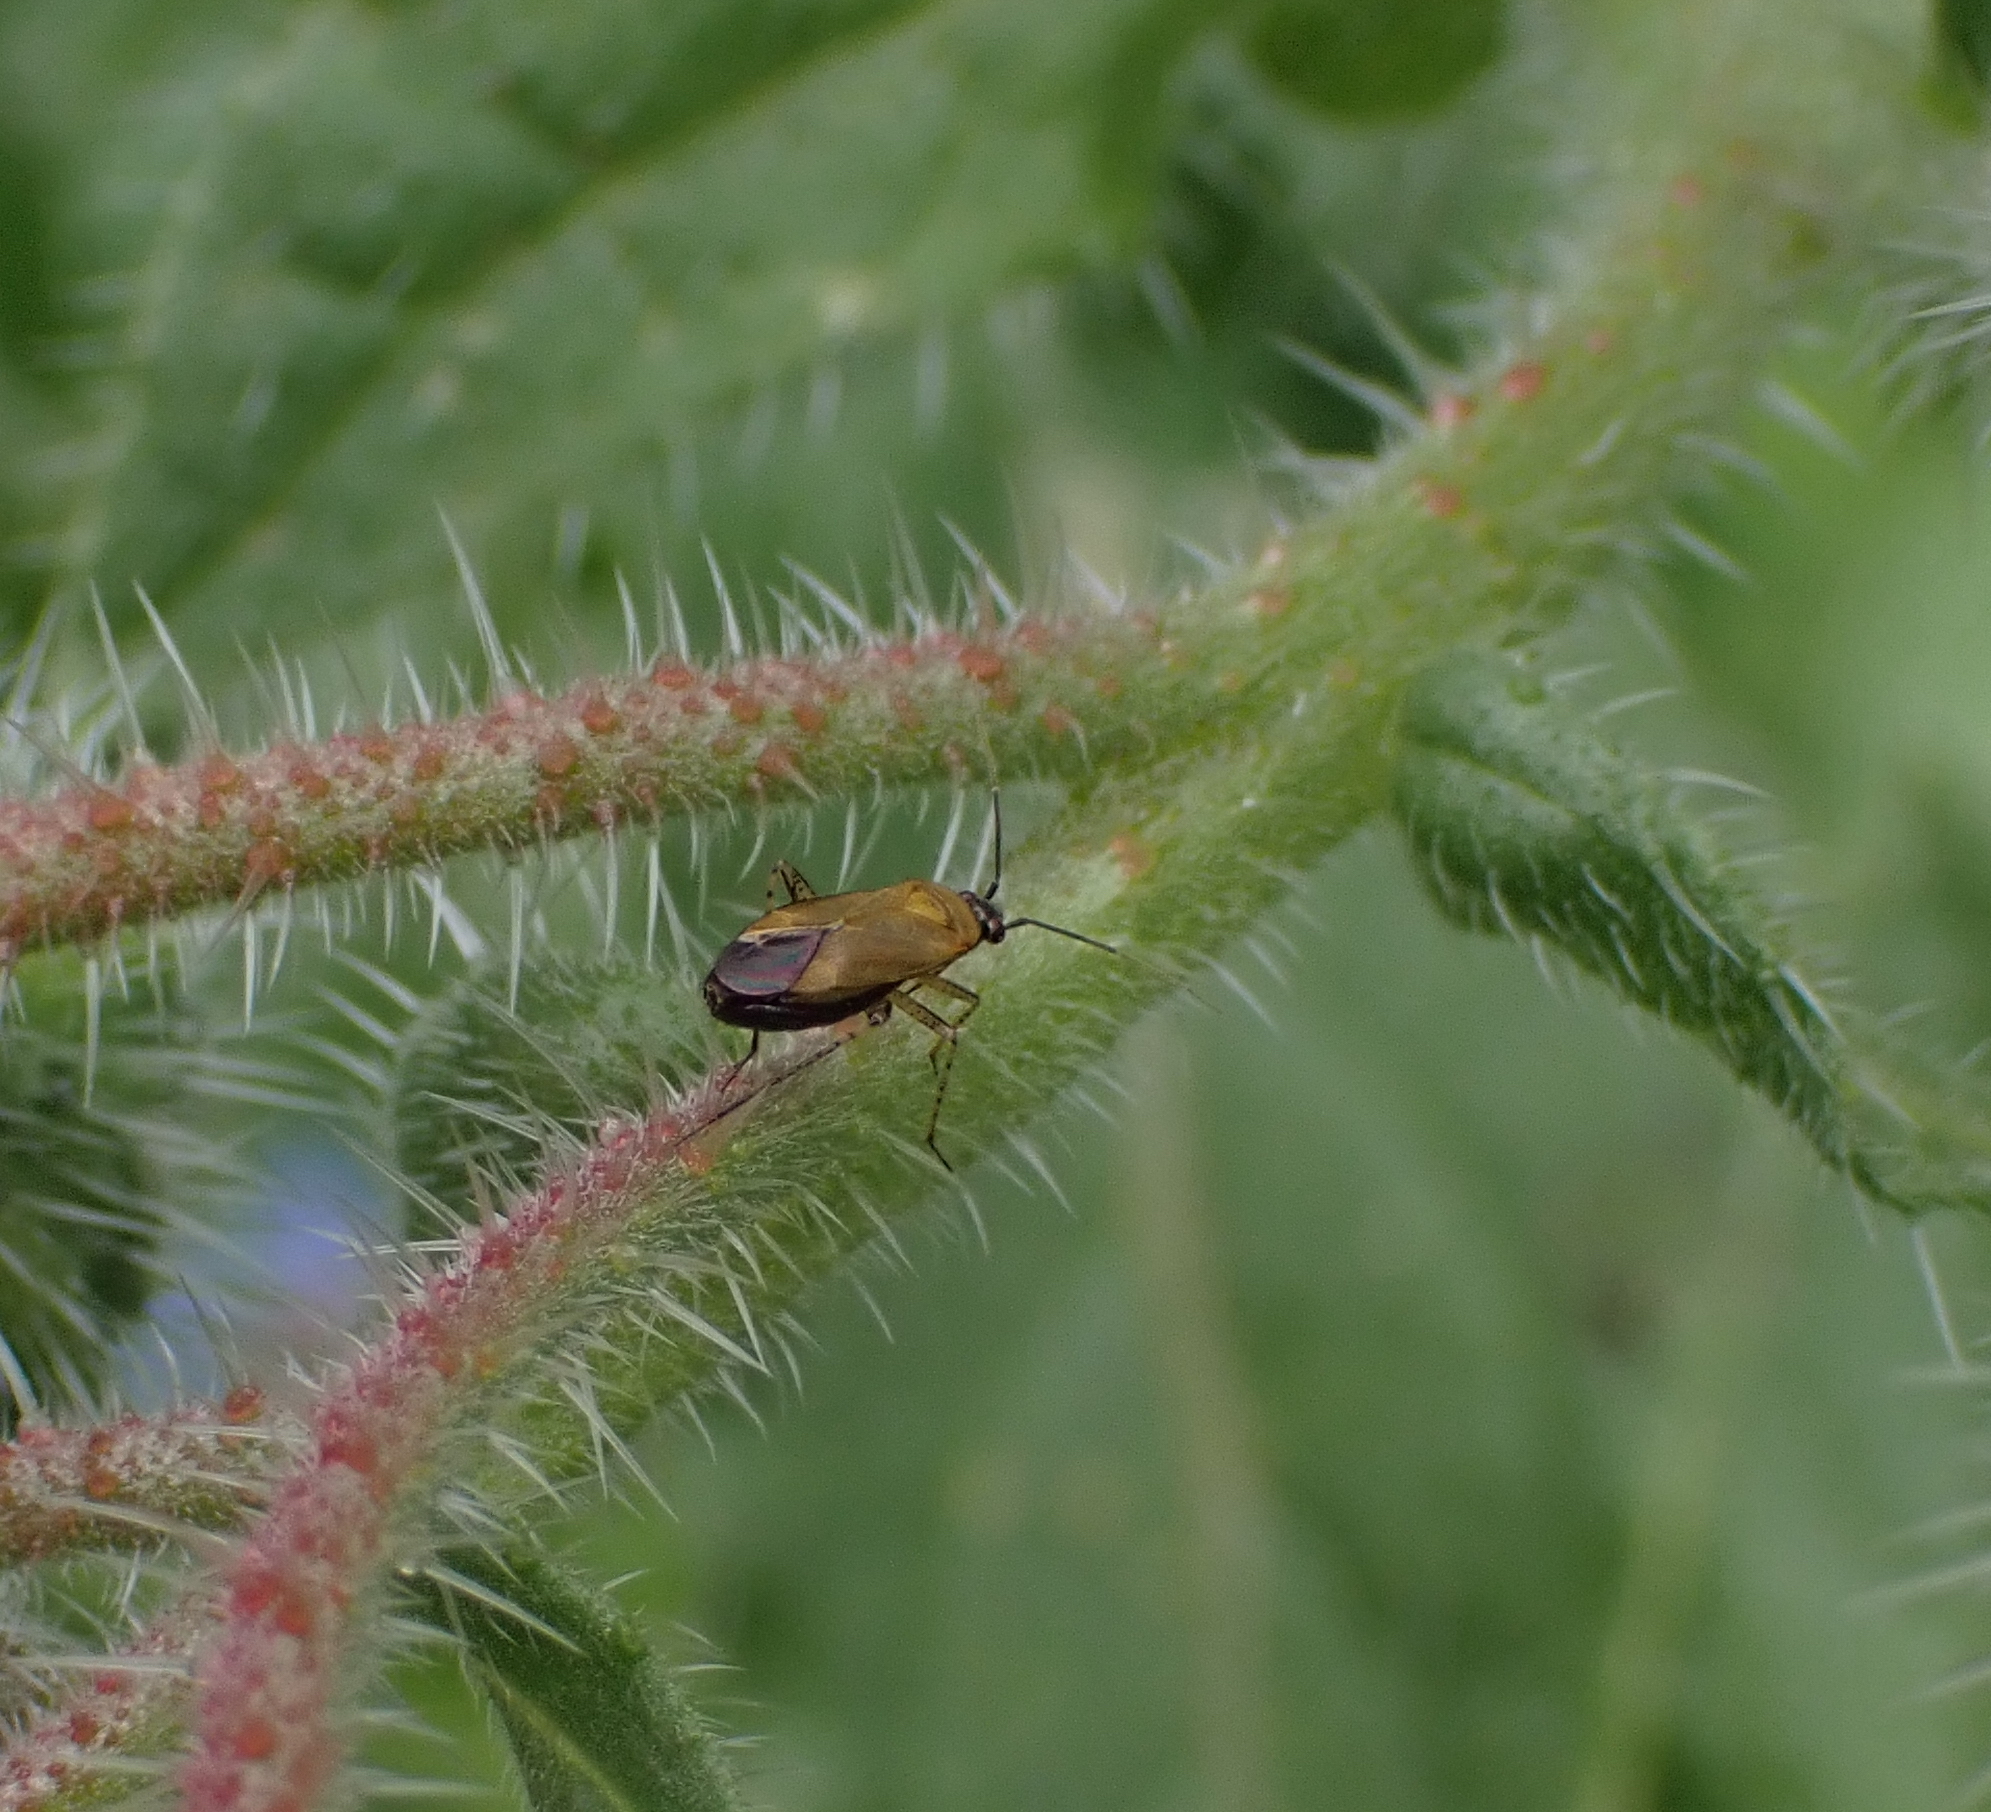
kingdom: Animalia
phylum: Arthropoda
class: Insecta
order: Hemiptera
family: Miridae
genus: Plagiognathus
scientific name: Plagiognathus arbustorum
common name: Plant bug
